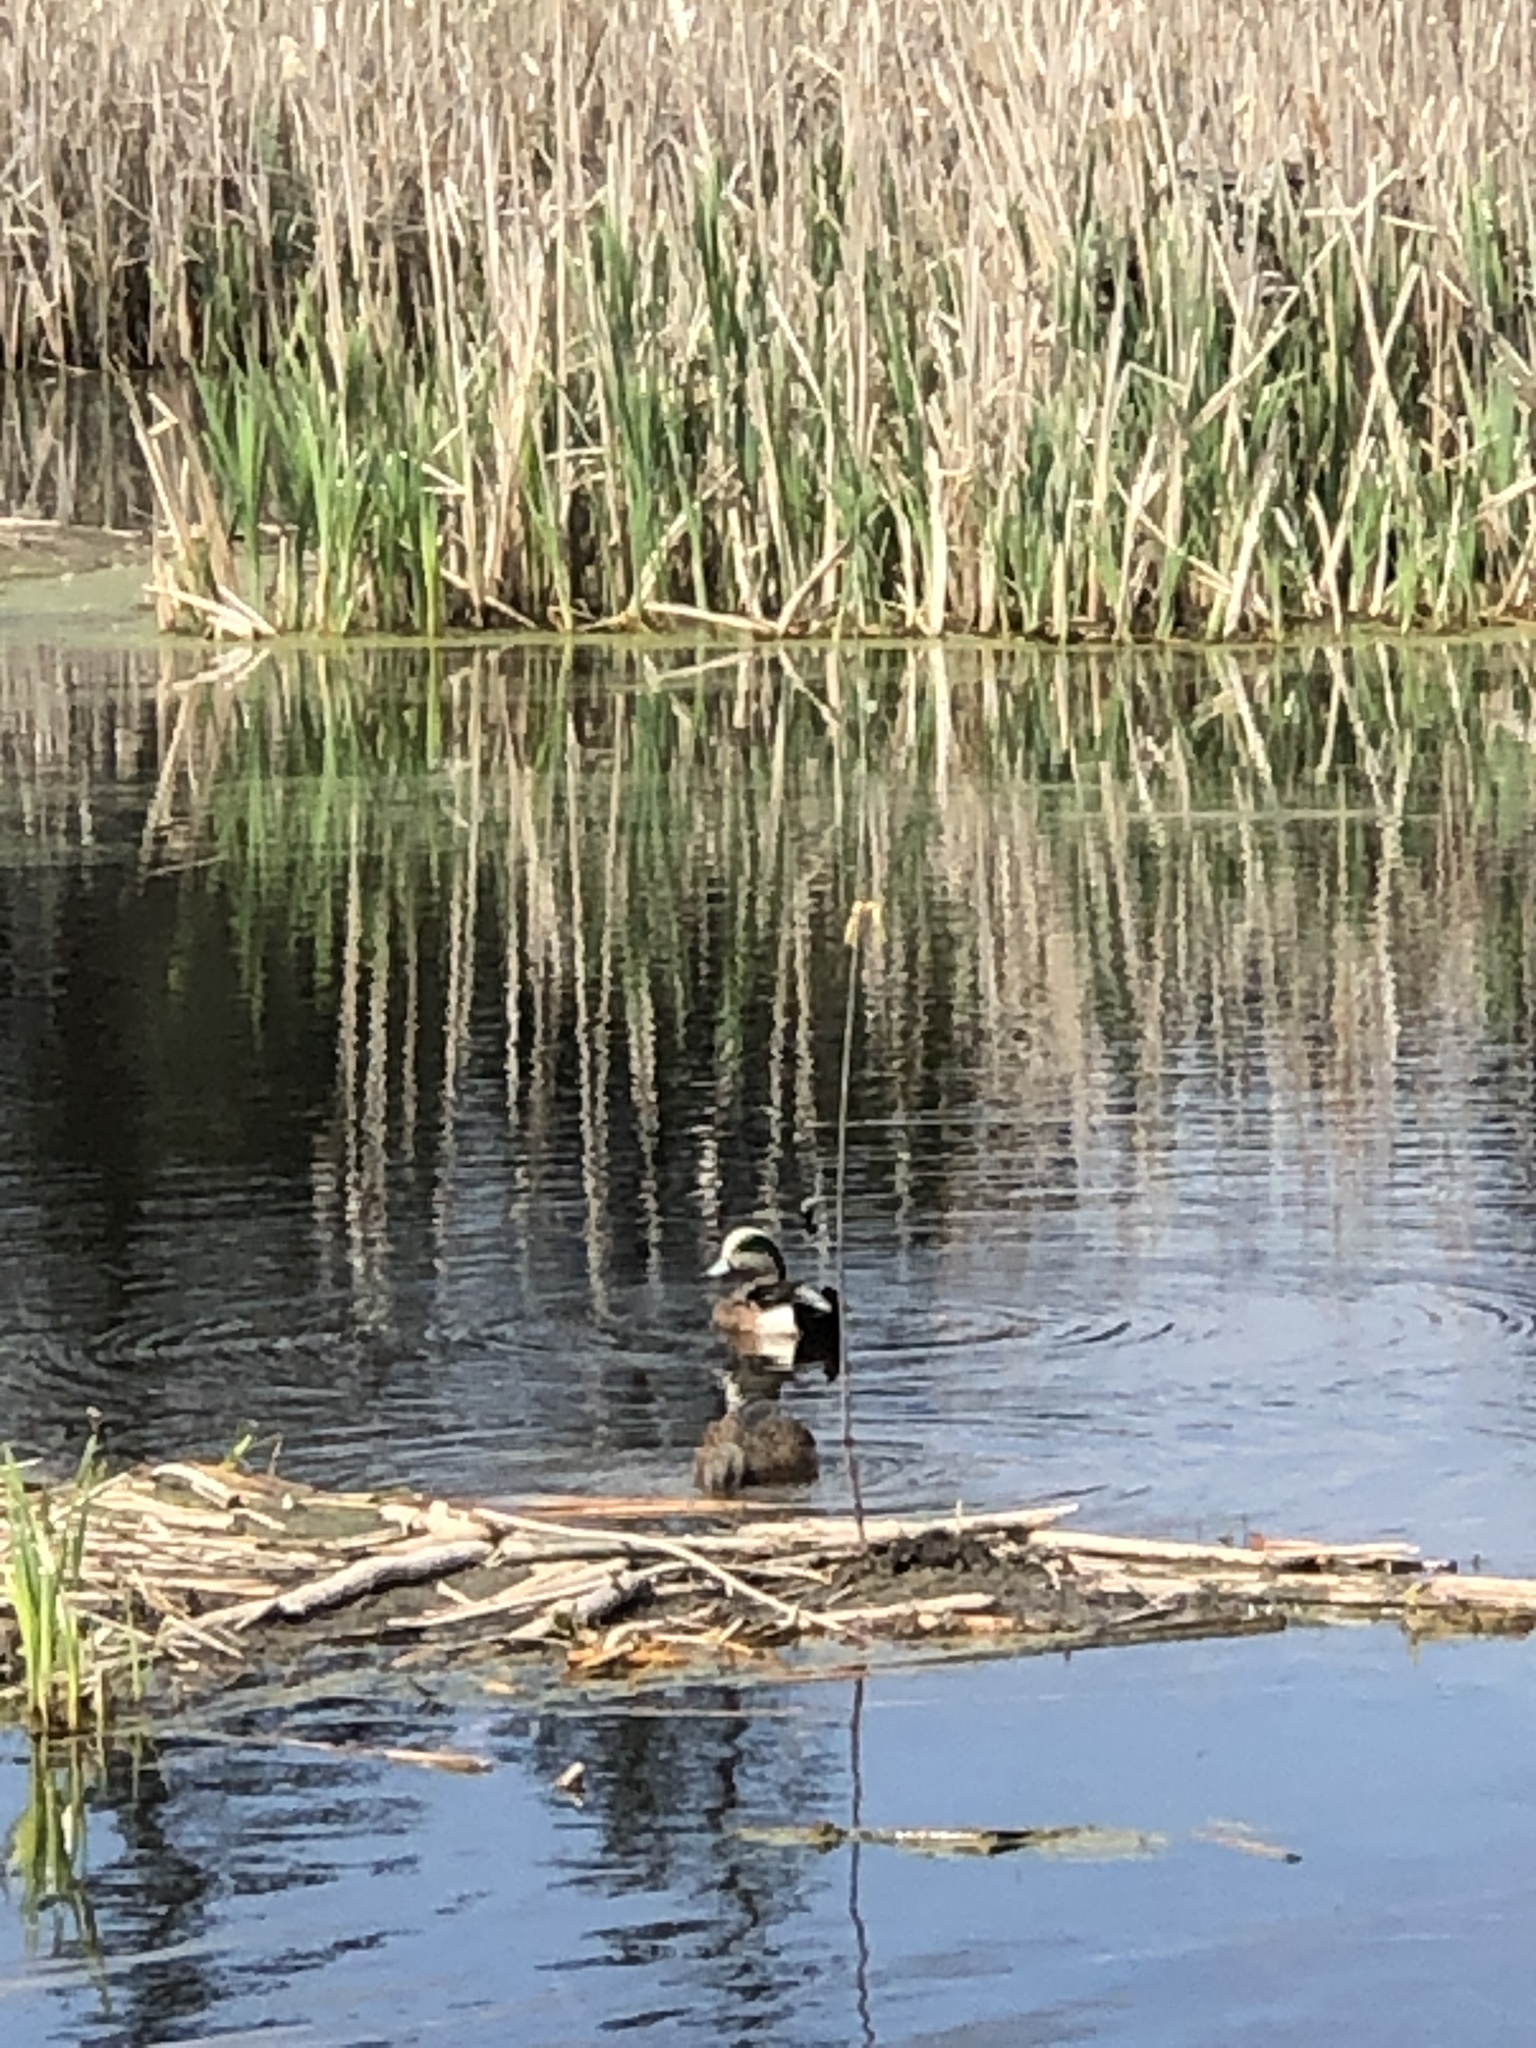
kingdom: Animalia
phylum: Chordata
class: Aves
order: Anseriformes
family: Anatidae
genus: Mareca
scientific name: Mareca americana
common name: American wigeon
